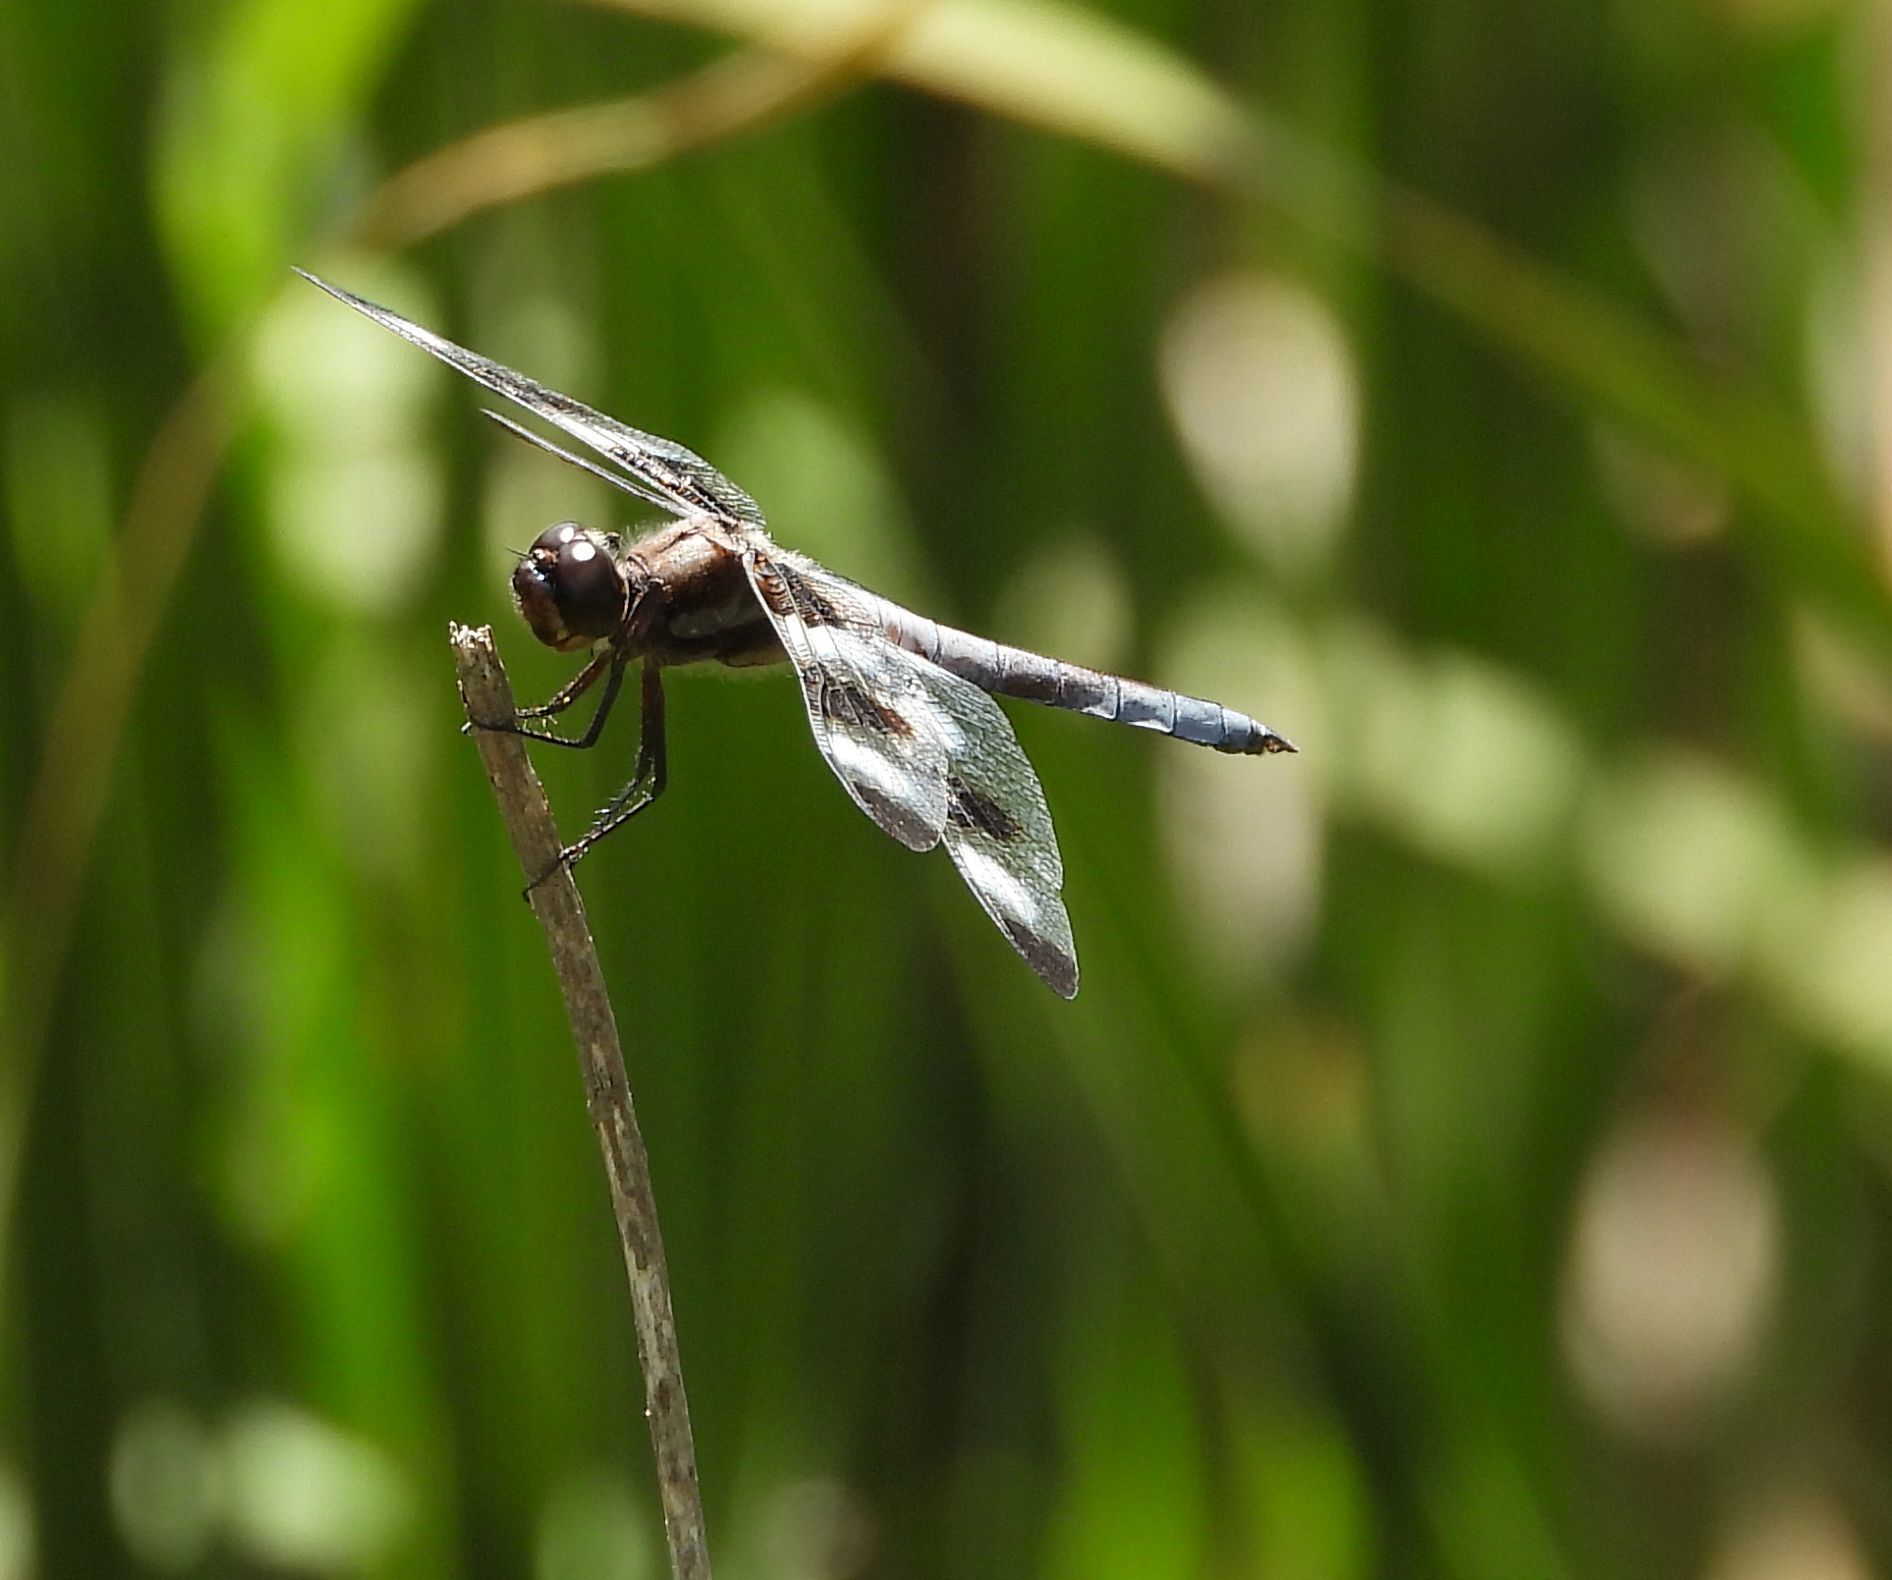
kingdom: Animalia
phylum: Arthropoda
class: Insecta
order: Odonata
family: Libellulidae
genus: Libellula
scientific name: Libellula pulchella
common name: Twelve-spotted skimmer
